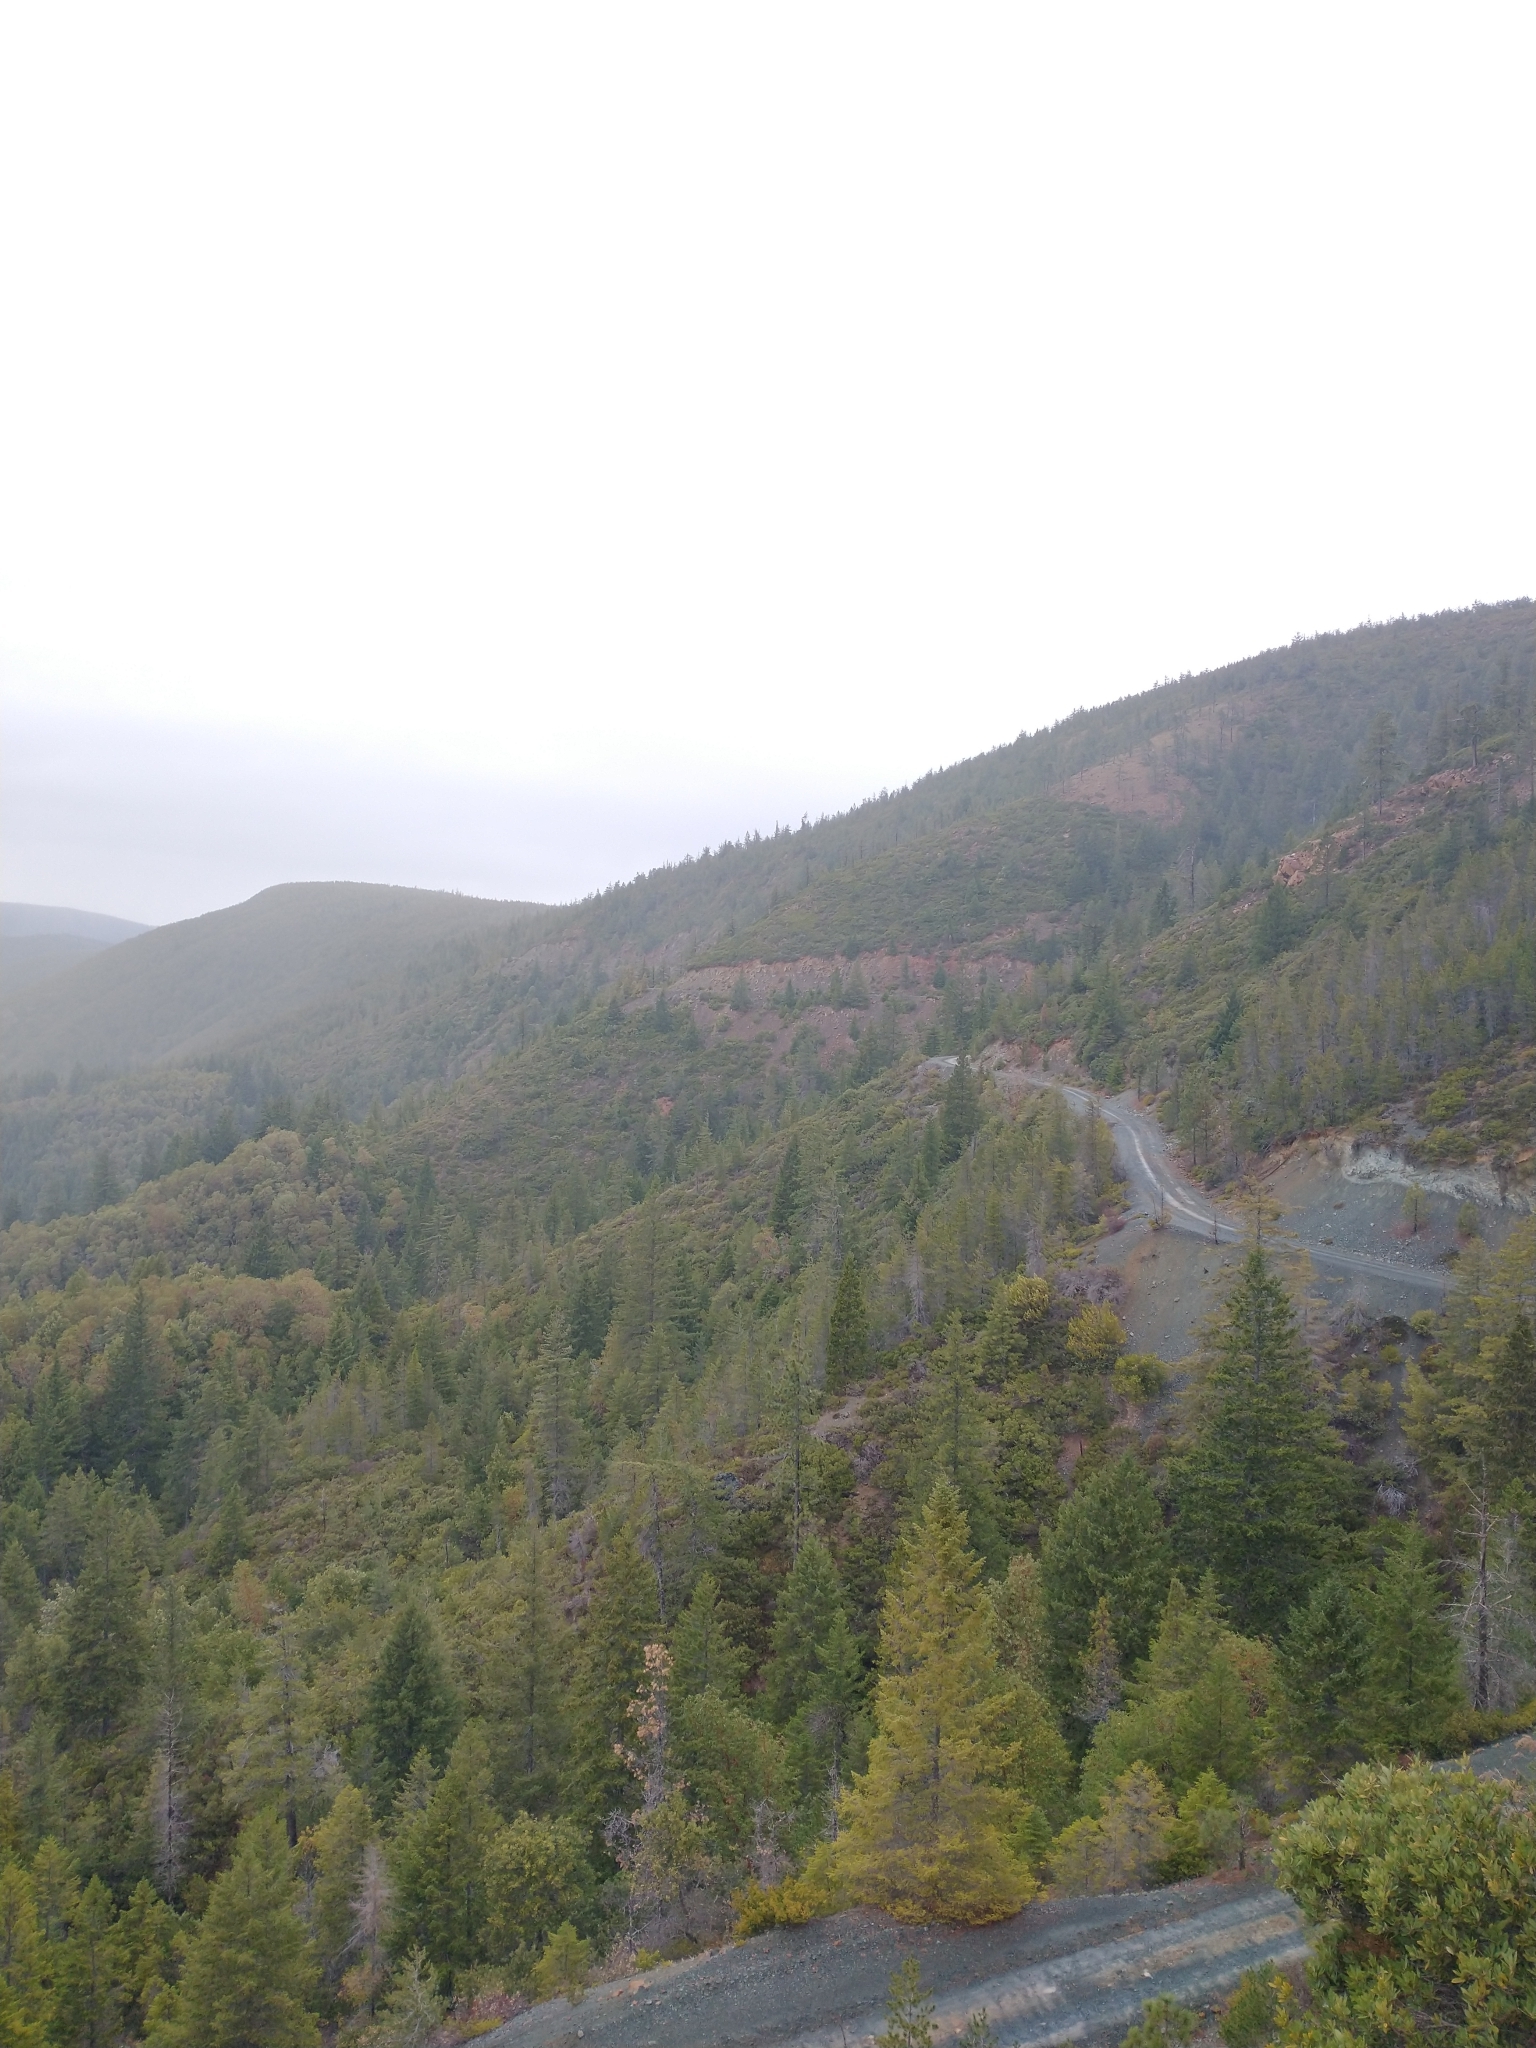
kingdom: Plantae
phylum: Tracheophyta
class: Pinopsida
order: Pinales
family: Pinaceae
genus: Pseudotsuga
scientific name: Pseudotsuga menziesii
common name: Douglas fir
